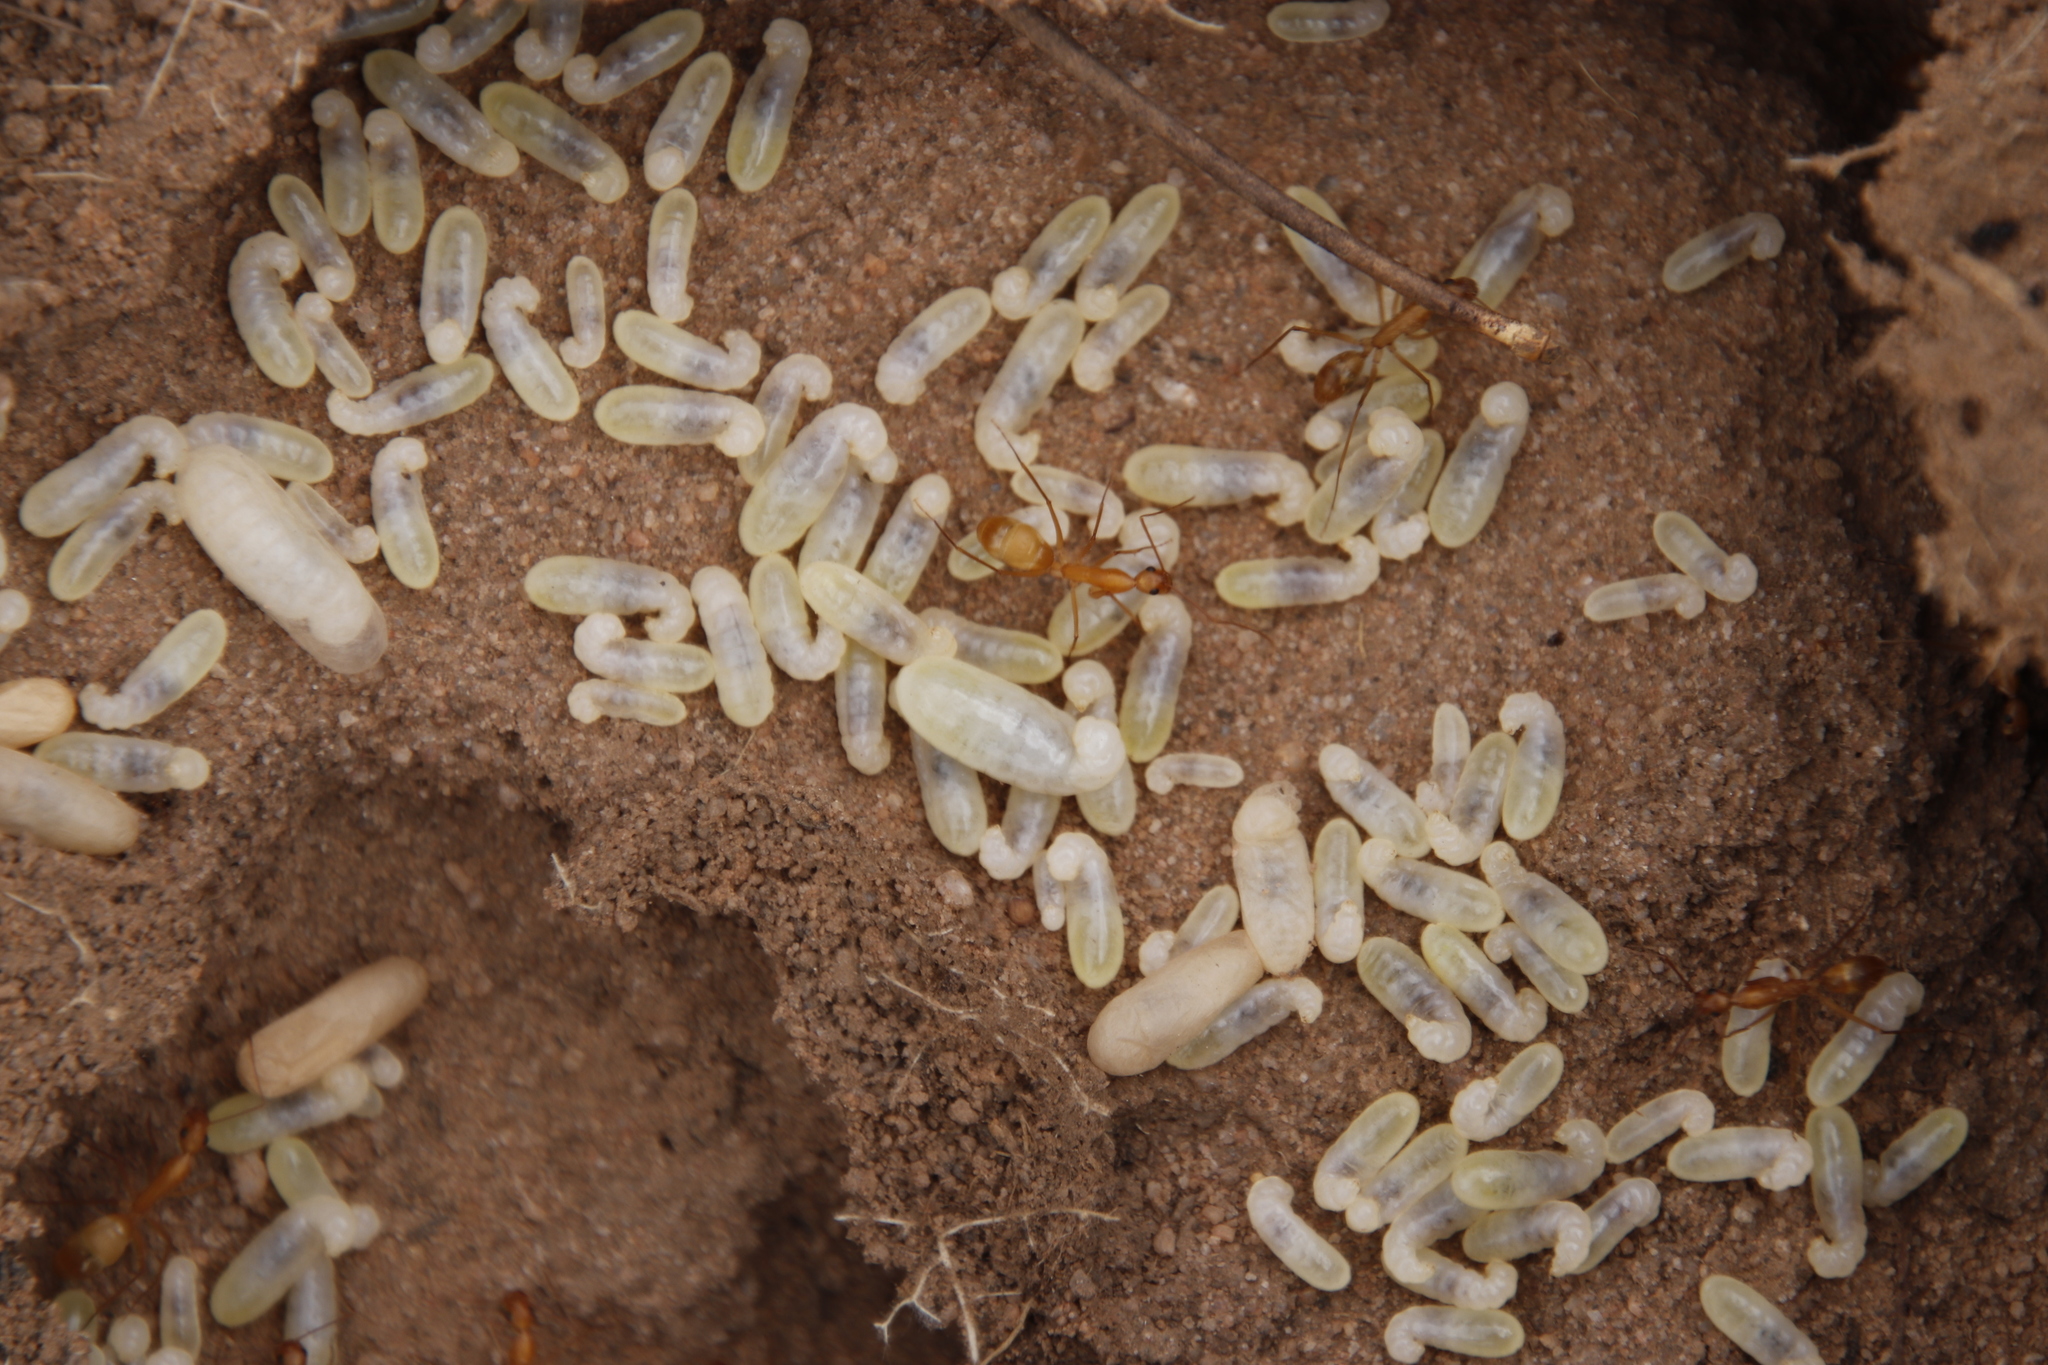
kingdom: Animalia
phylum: Arthropoda
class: Insecta
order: Hymenoptera
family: Formicidae
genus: Camponotus
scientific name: Camponotus cuneiscapus
